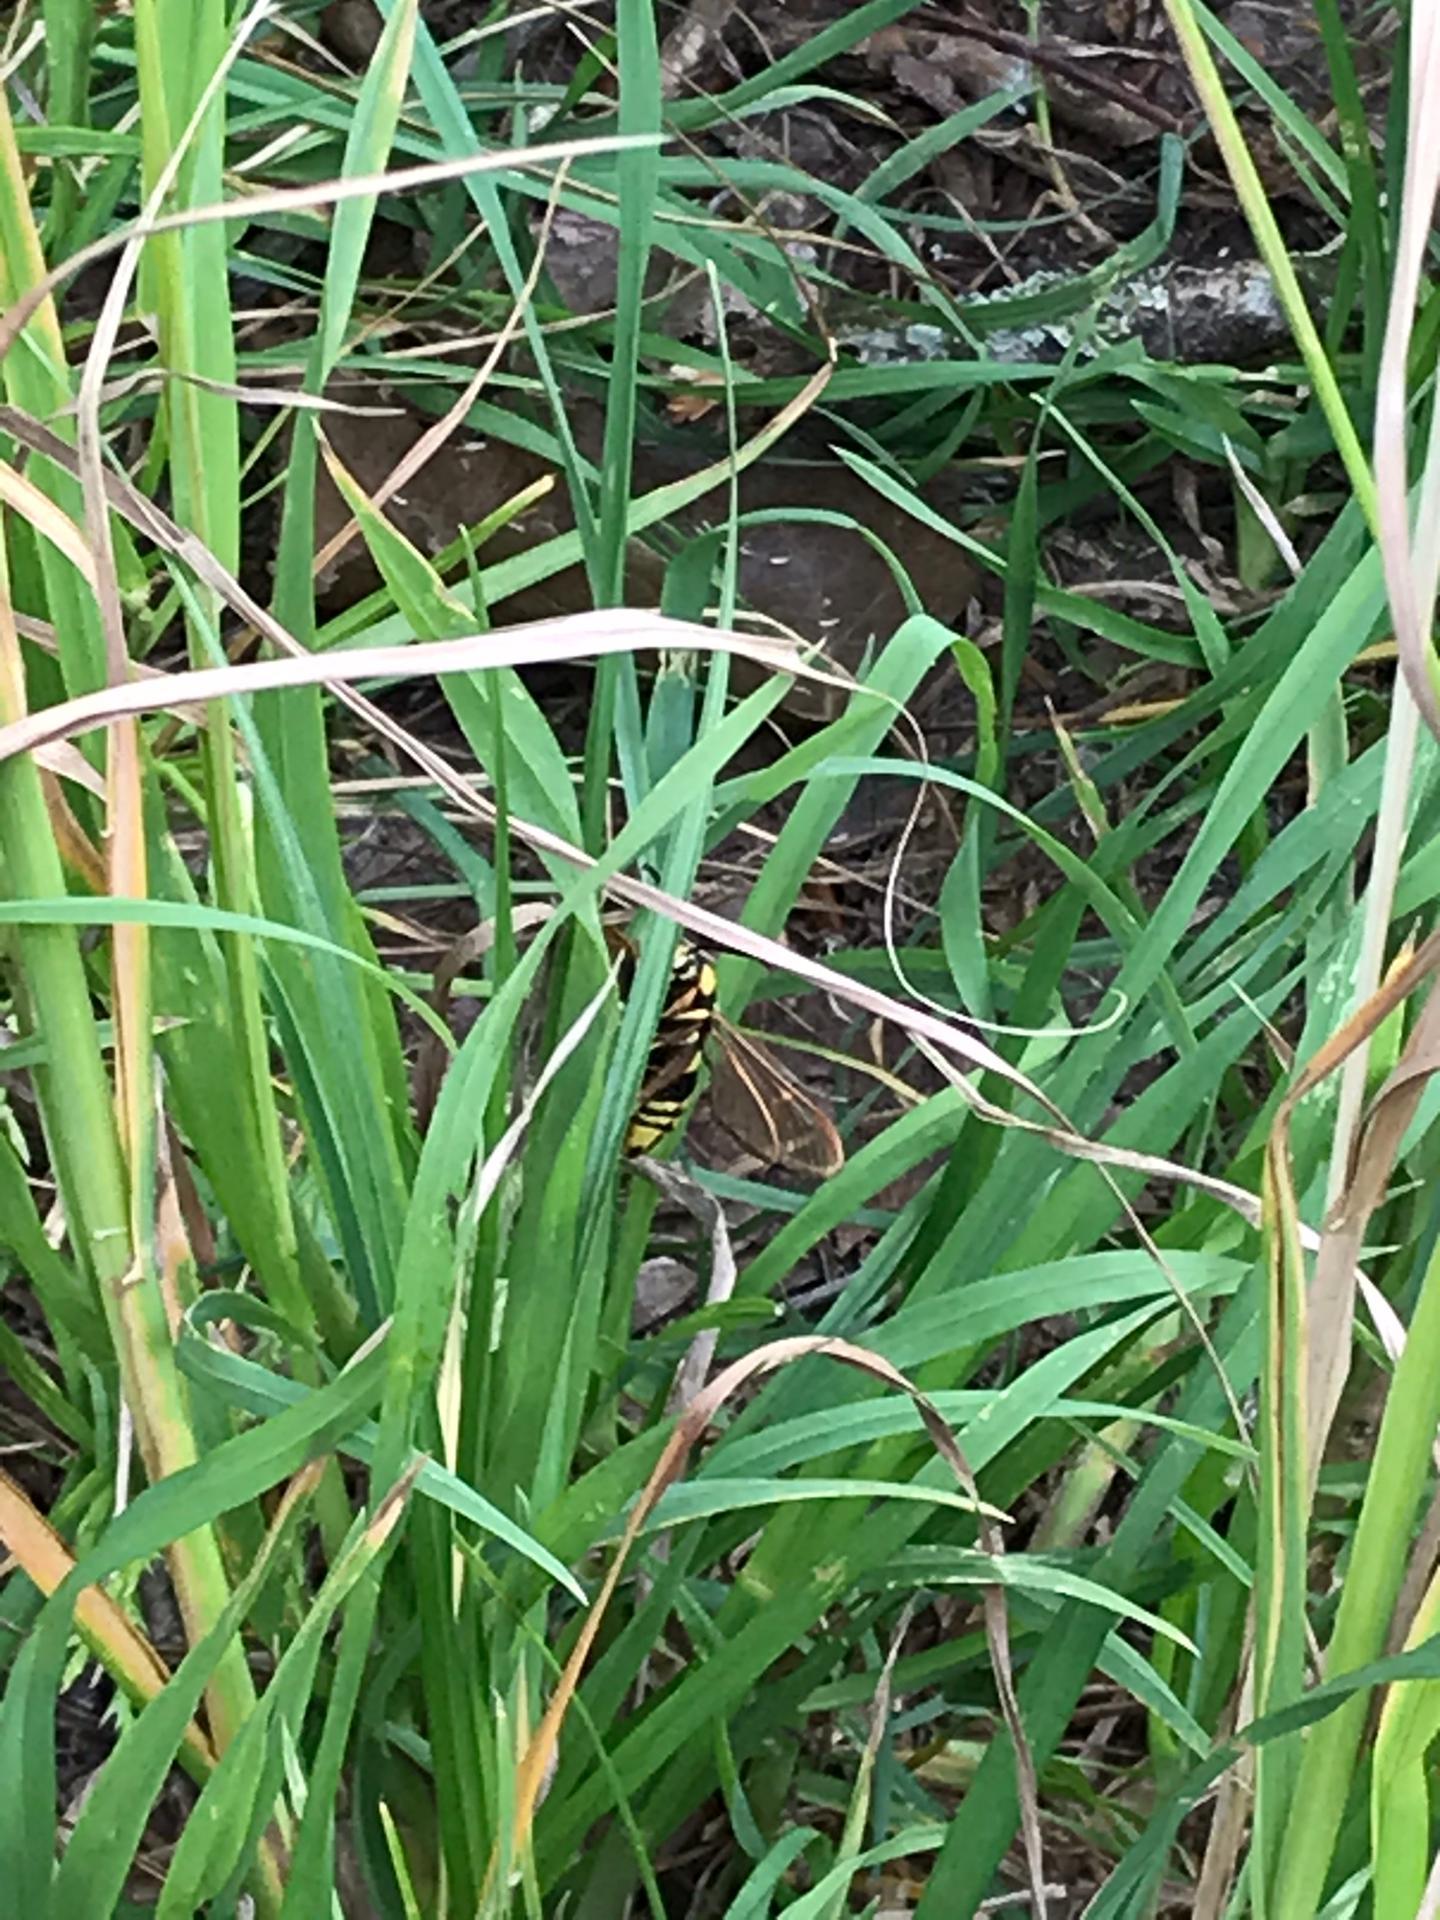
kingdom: Animalia
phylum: Arthropoda
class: Insecta
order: Lepidoptera
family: Sesiidae
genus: Sesia
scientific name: Sesia apiformis
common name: Hornet moth
